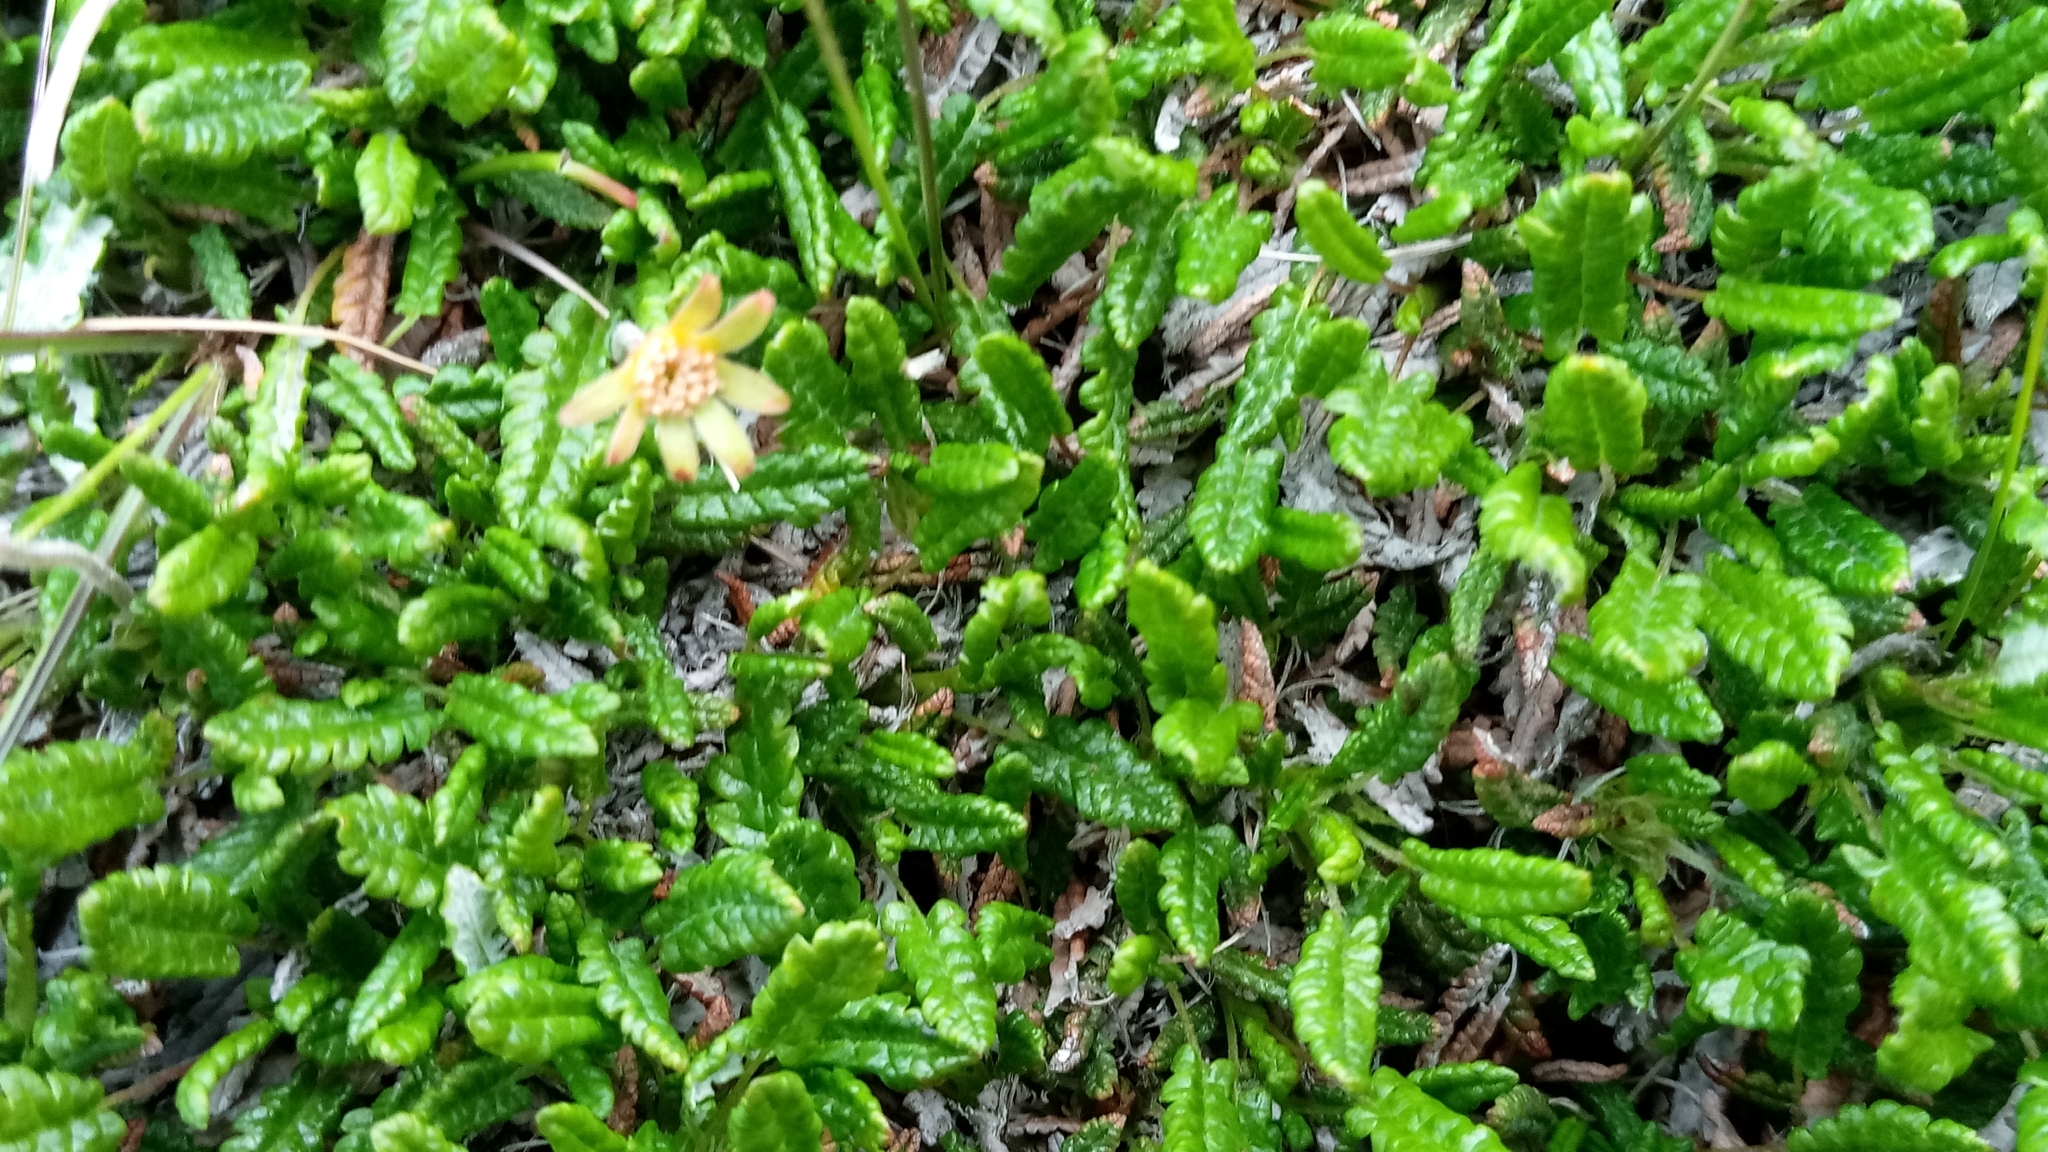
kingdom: Plantae
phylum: Tracheophyta
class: Magnoliopsida
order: Rosales
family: Rosaceae
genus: Dryas
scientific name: Dryas octopetala
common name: Eight-petal mountain-avens
